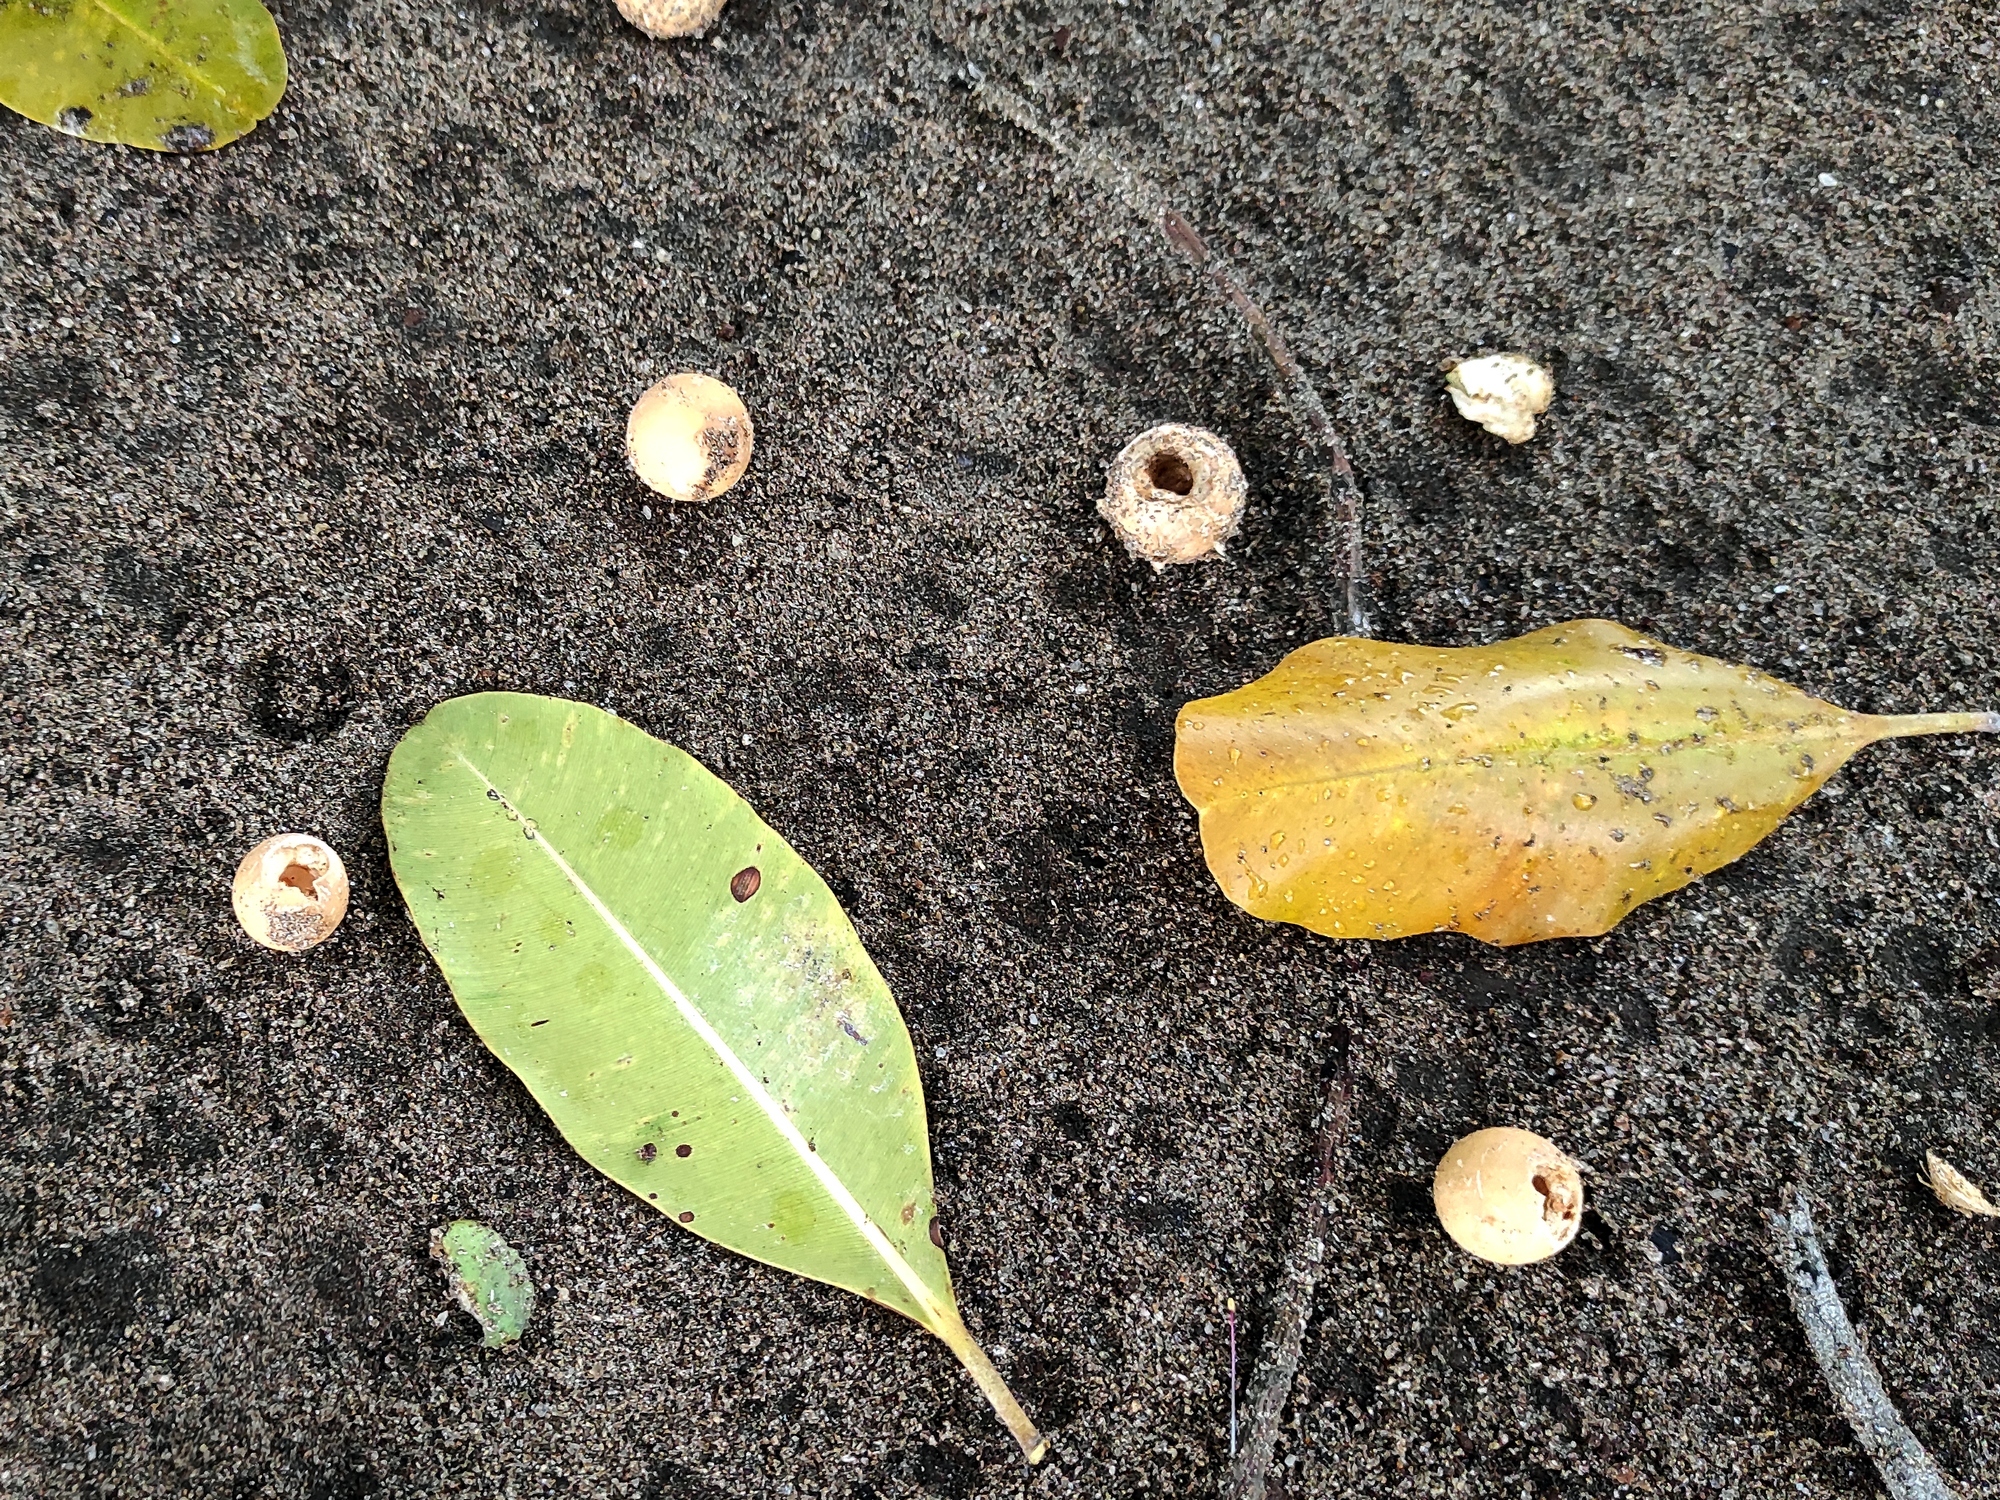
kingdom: Plantae
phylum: Tracheophyta
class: Magnoliopsida
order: Malpighiales
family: Calophyllaceae
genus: Calophyllum
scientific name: Calophyllum inophyllum
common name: Alexandrian laurel
